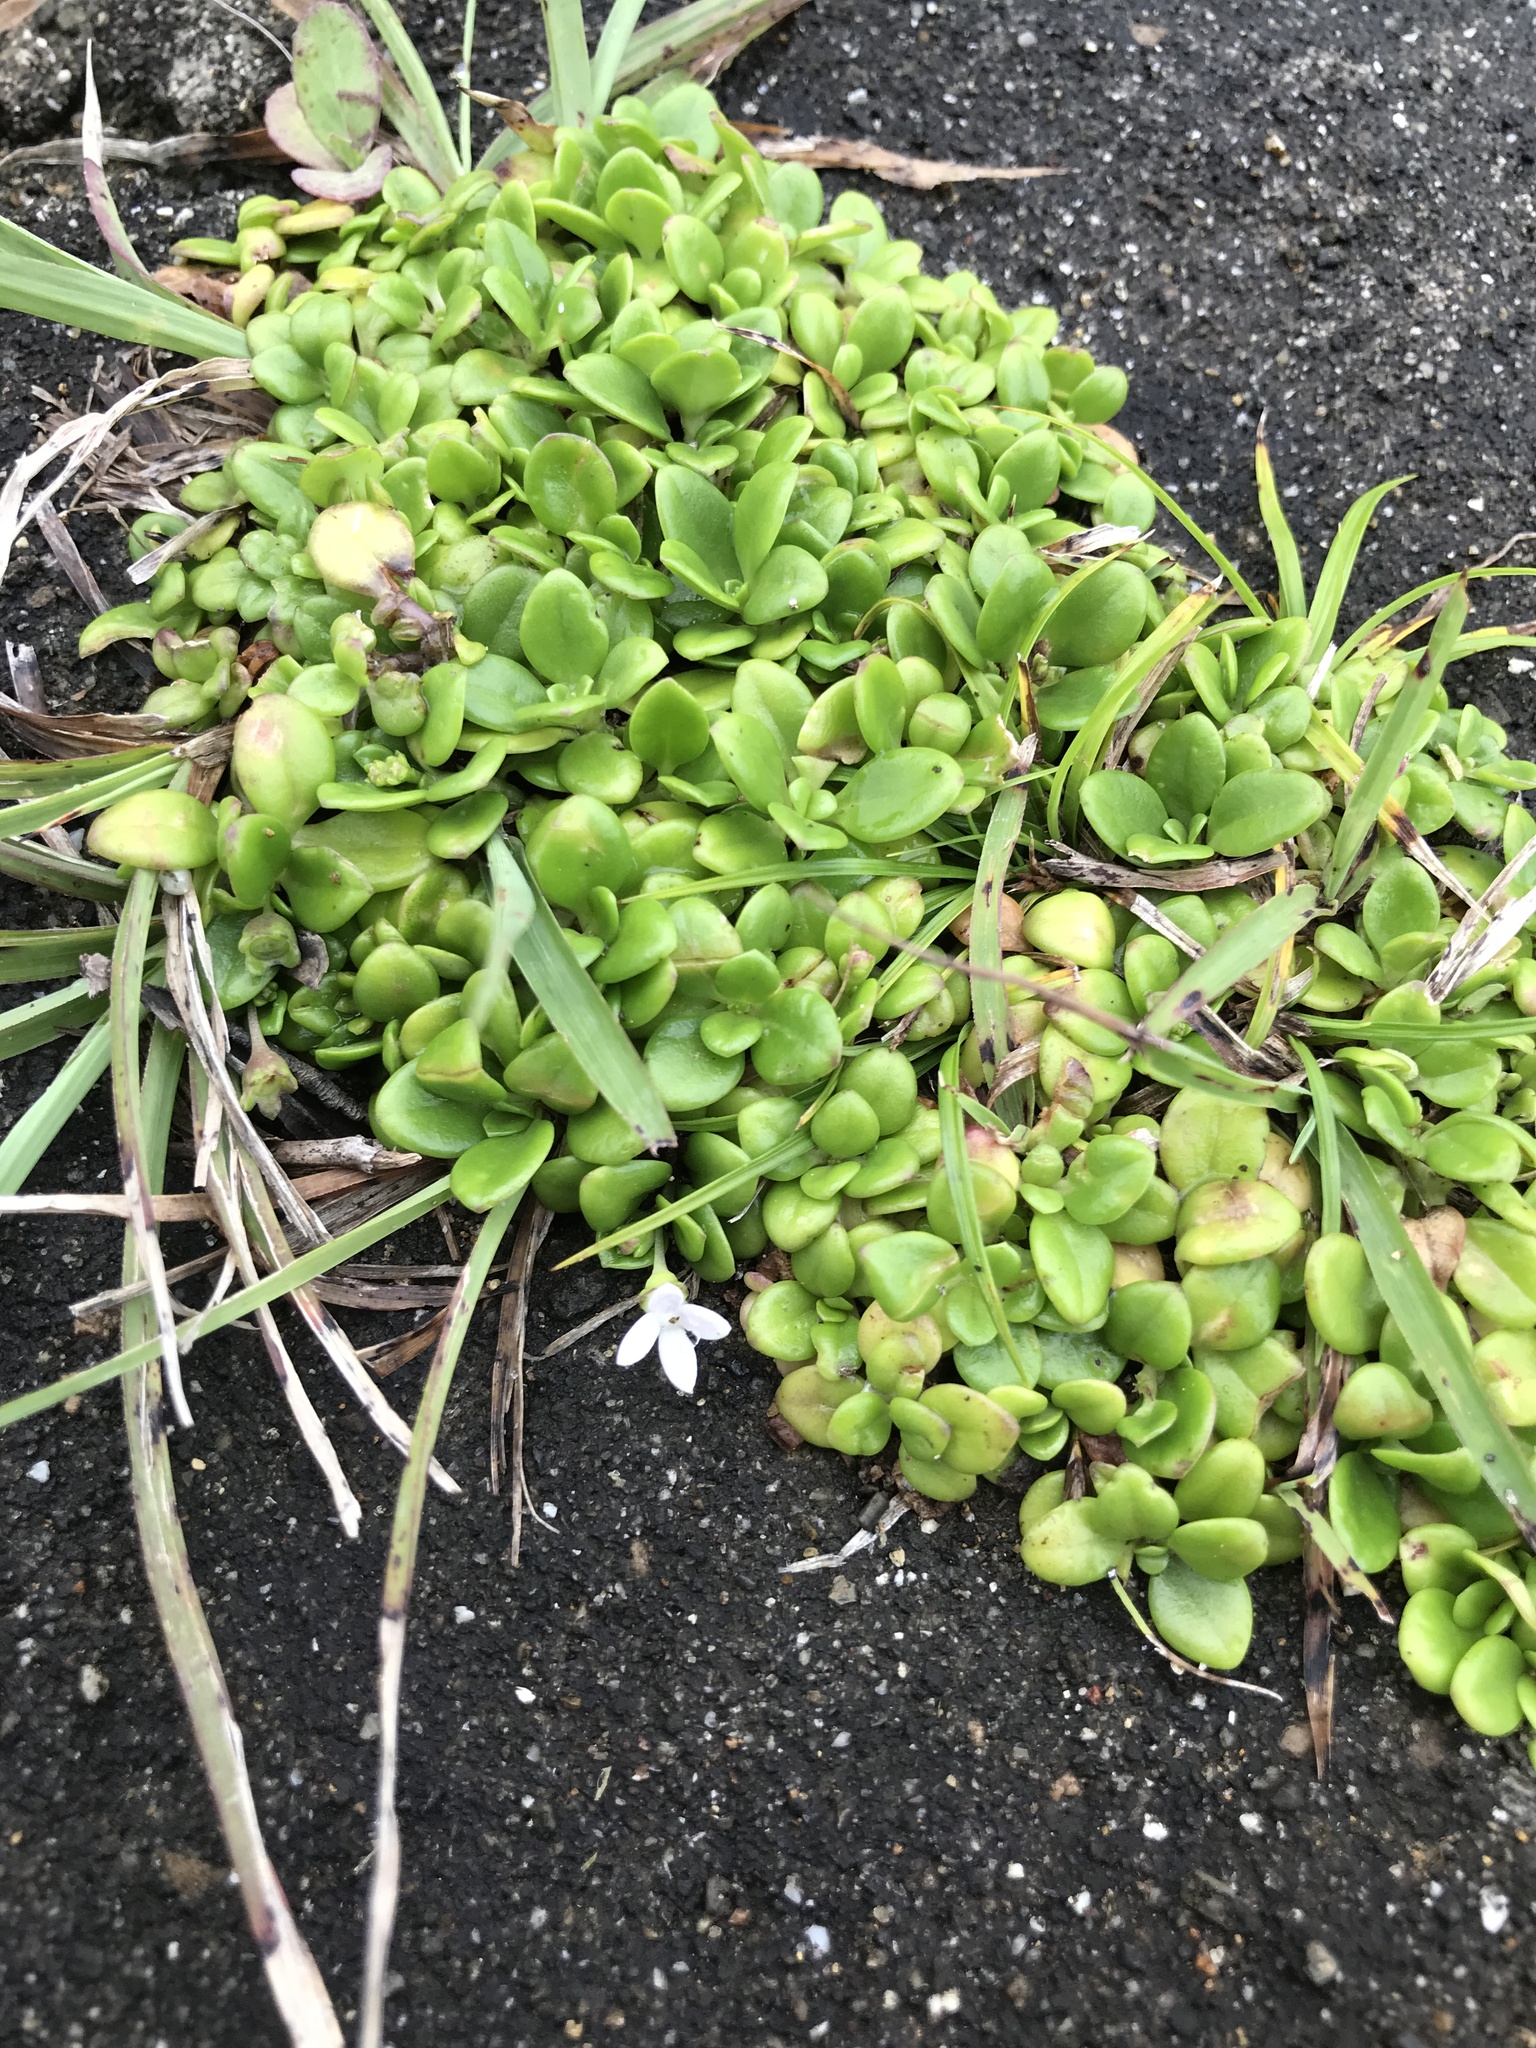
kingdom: Plantae
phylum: Tracheophyta
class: Magnoliopsida
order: Gentianales
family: Rubiaceae
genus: Leptopetalum
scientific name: Leptopetalum strigulosum
